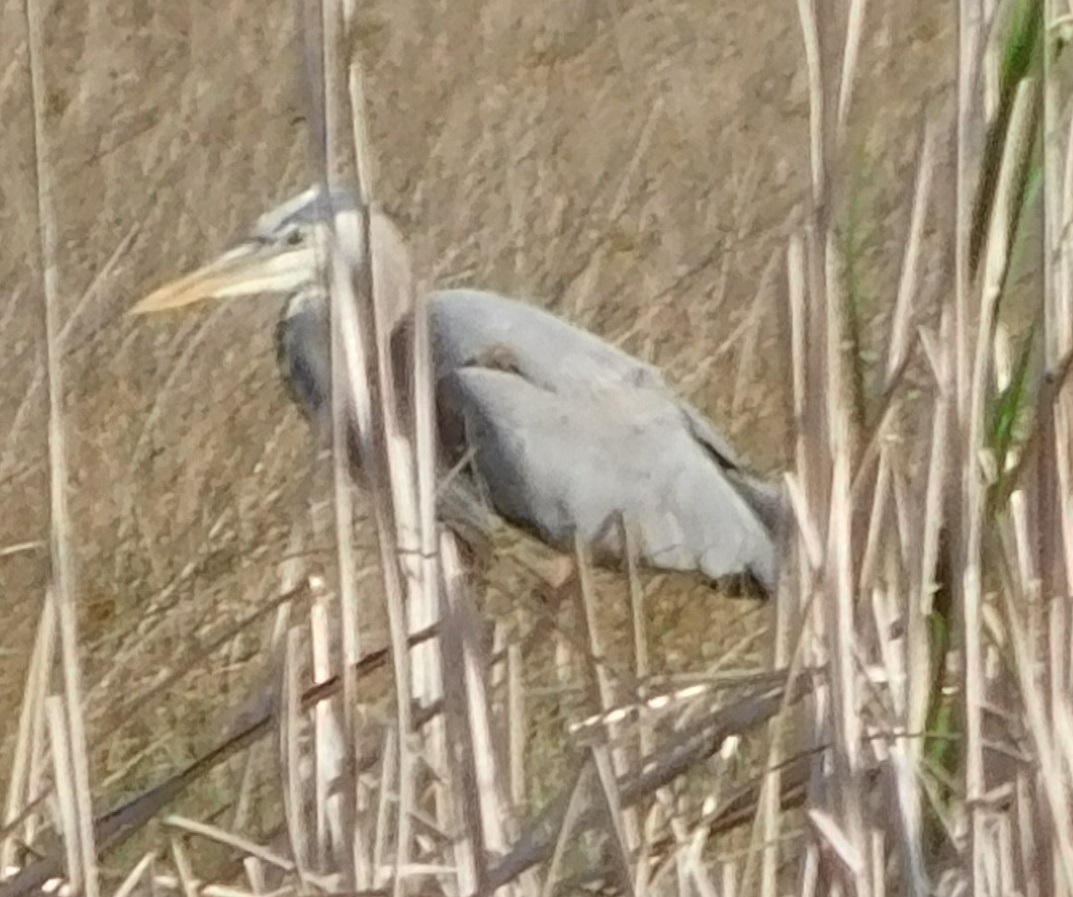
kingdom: Animalia
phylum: Chordata
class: Aves
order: Pelecaniformes
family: Ardeidae
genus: Ardea
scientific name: Ardea herodias
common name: Great blue heron
